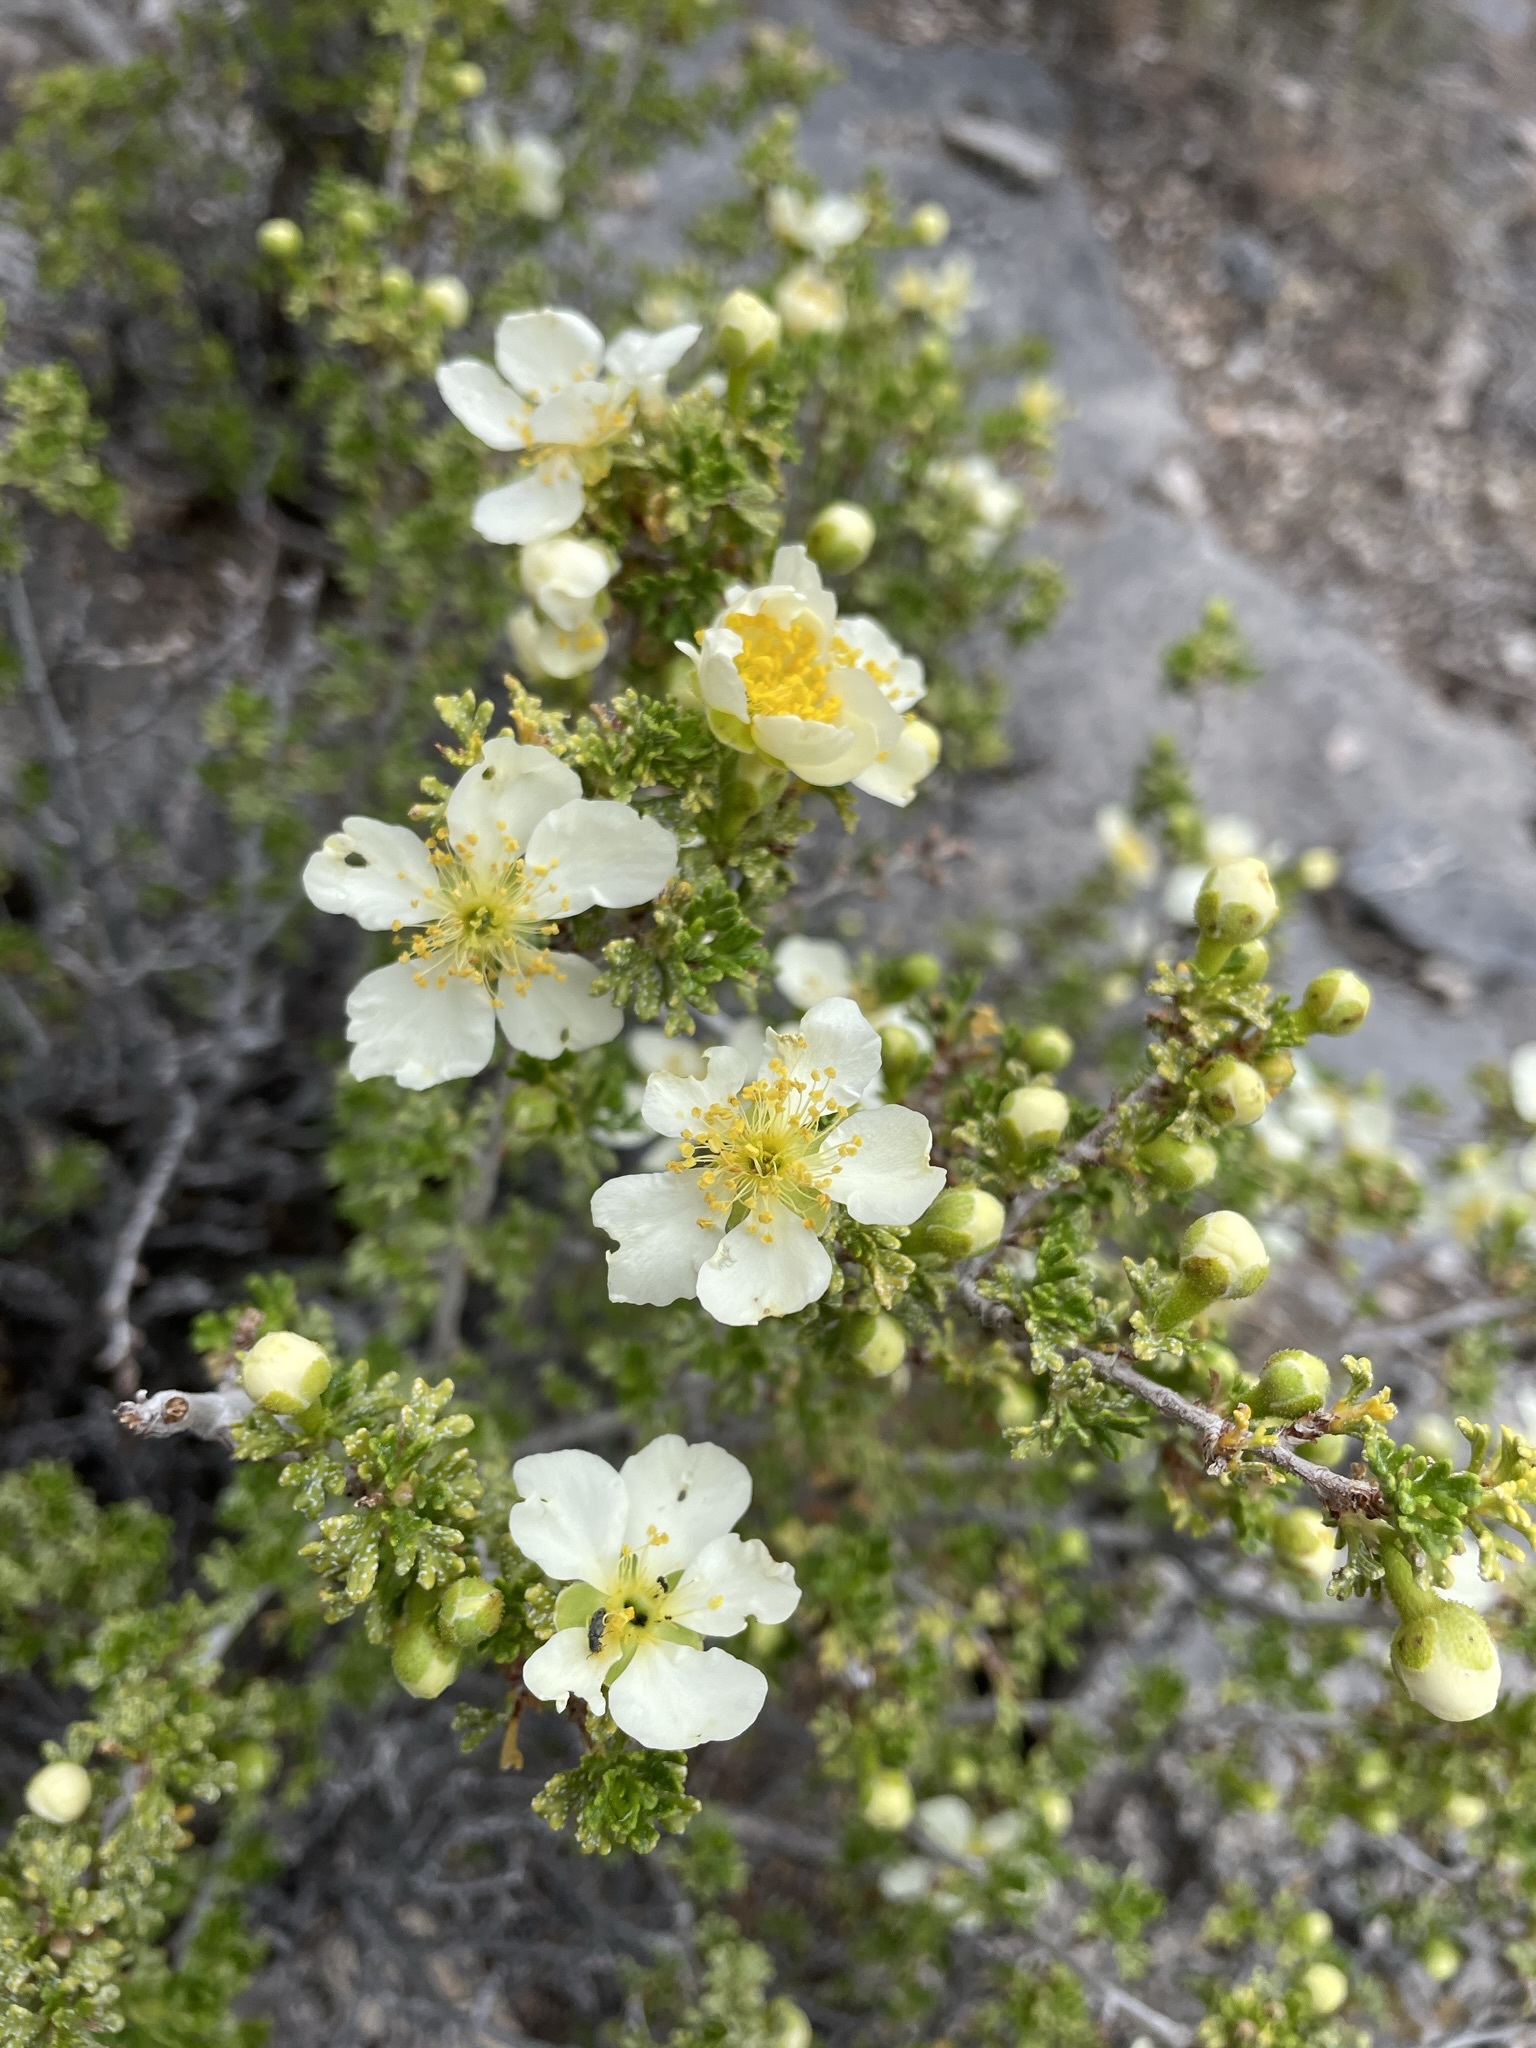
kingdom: Plantae
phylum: Tracheophyta
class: Magnoliopsida
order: Rosales
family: Rosaceae
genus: Purshia
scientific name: Purshia stansburiana
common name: Stansbury's cliffrose
